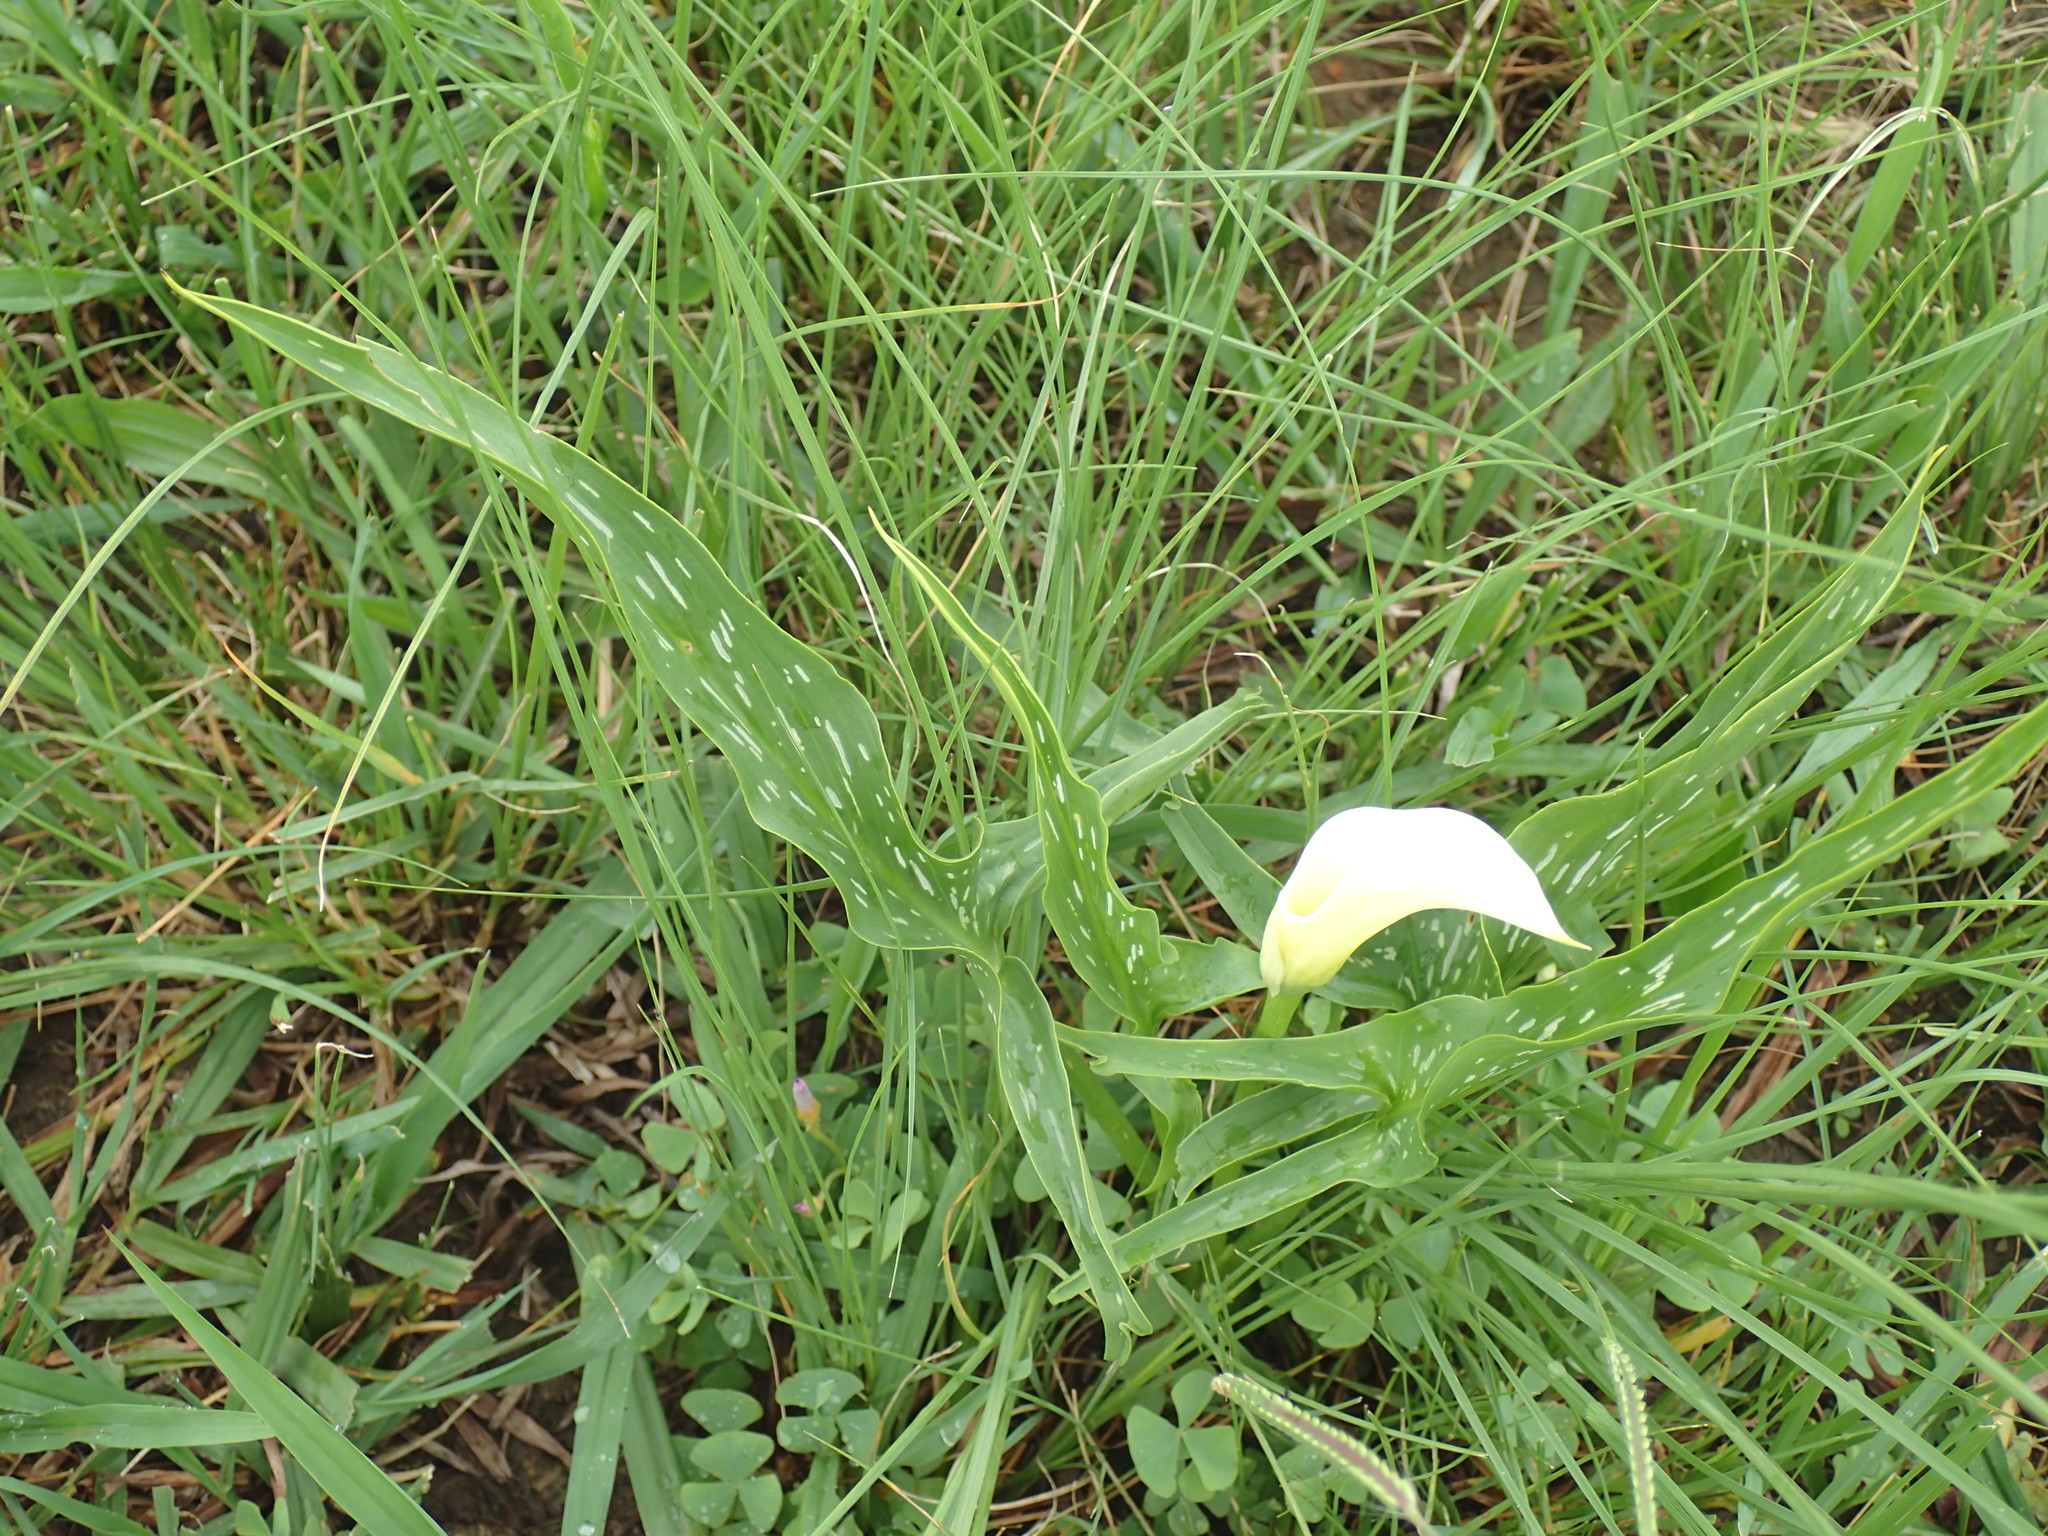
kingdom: Plantae
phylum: Tracheophyta
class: Liliopsida
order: Alismatales
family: Araceae
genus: Zantedeschia
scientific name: Zantedeschia albomaculata
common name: Spotted calla lily
